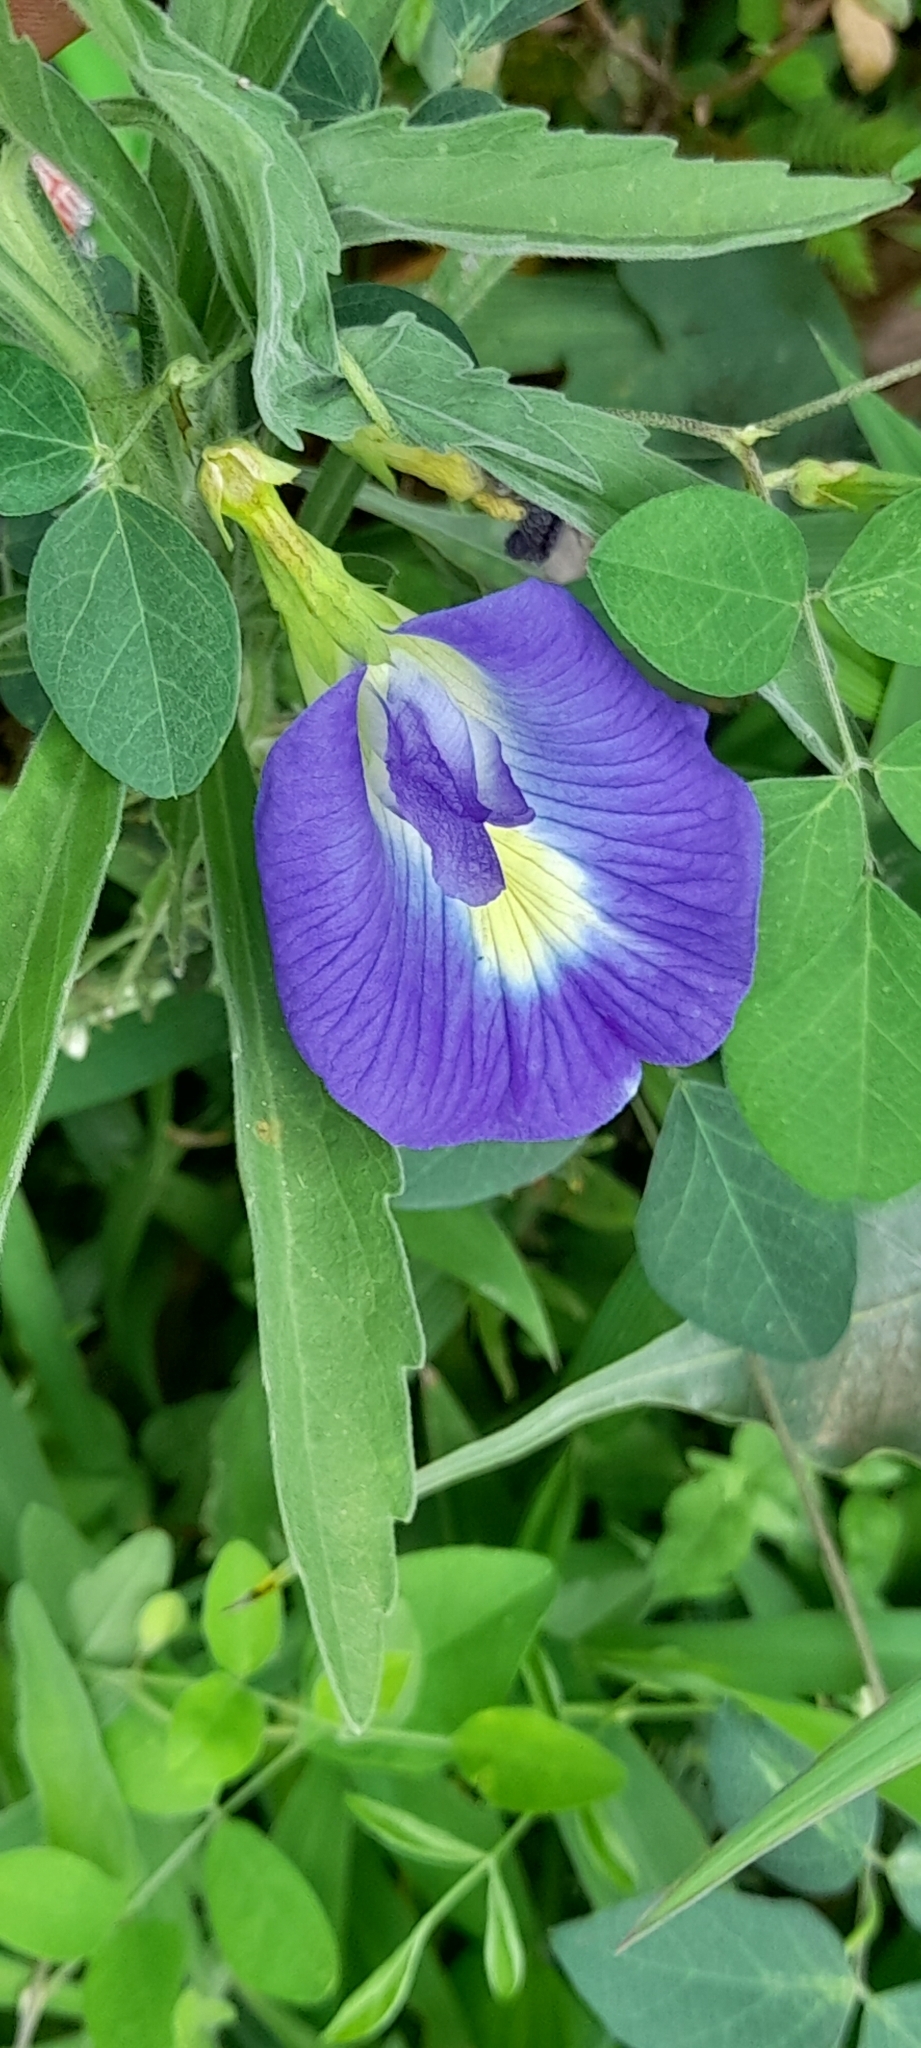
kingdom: Plantae
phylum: Tracheophyta
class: Magnoliopsida
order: Fabales
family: Fabaceae
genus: Clitoria
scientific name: Clitoria ternatea
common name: Asian pigeonwings
